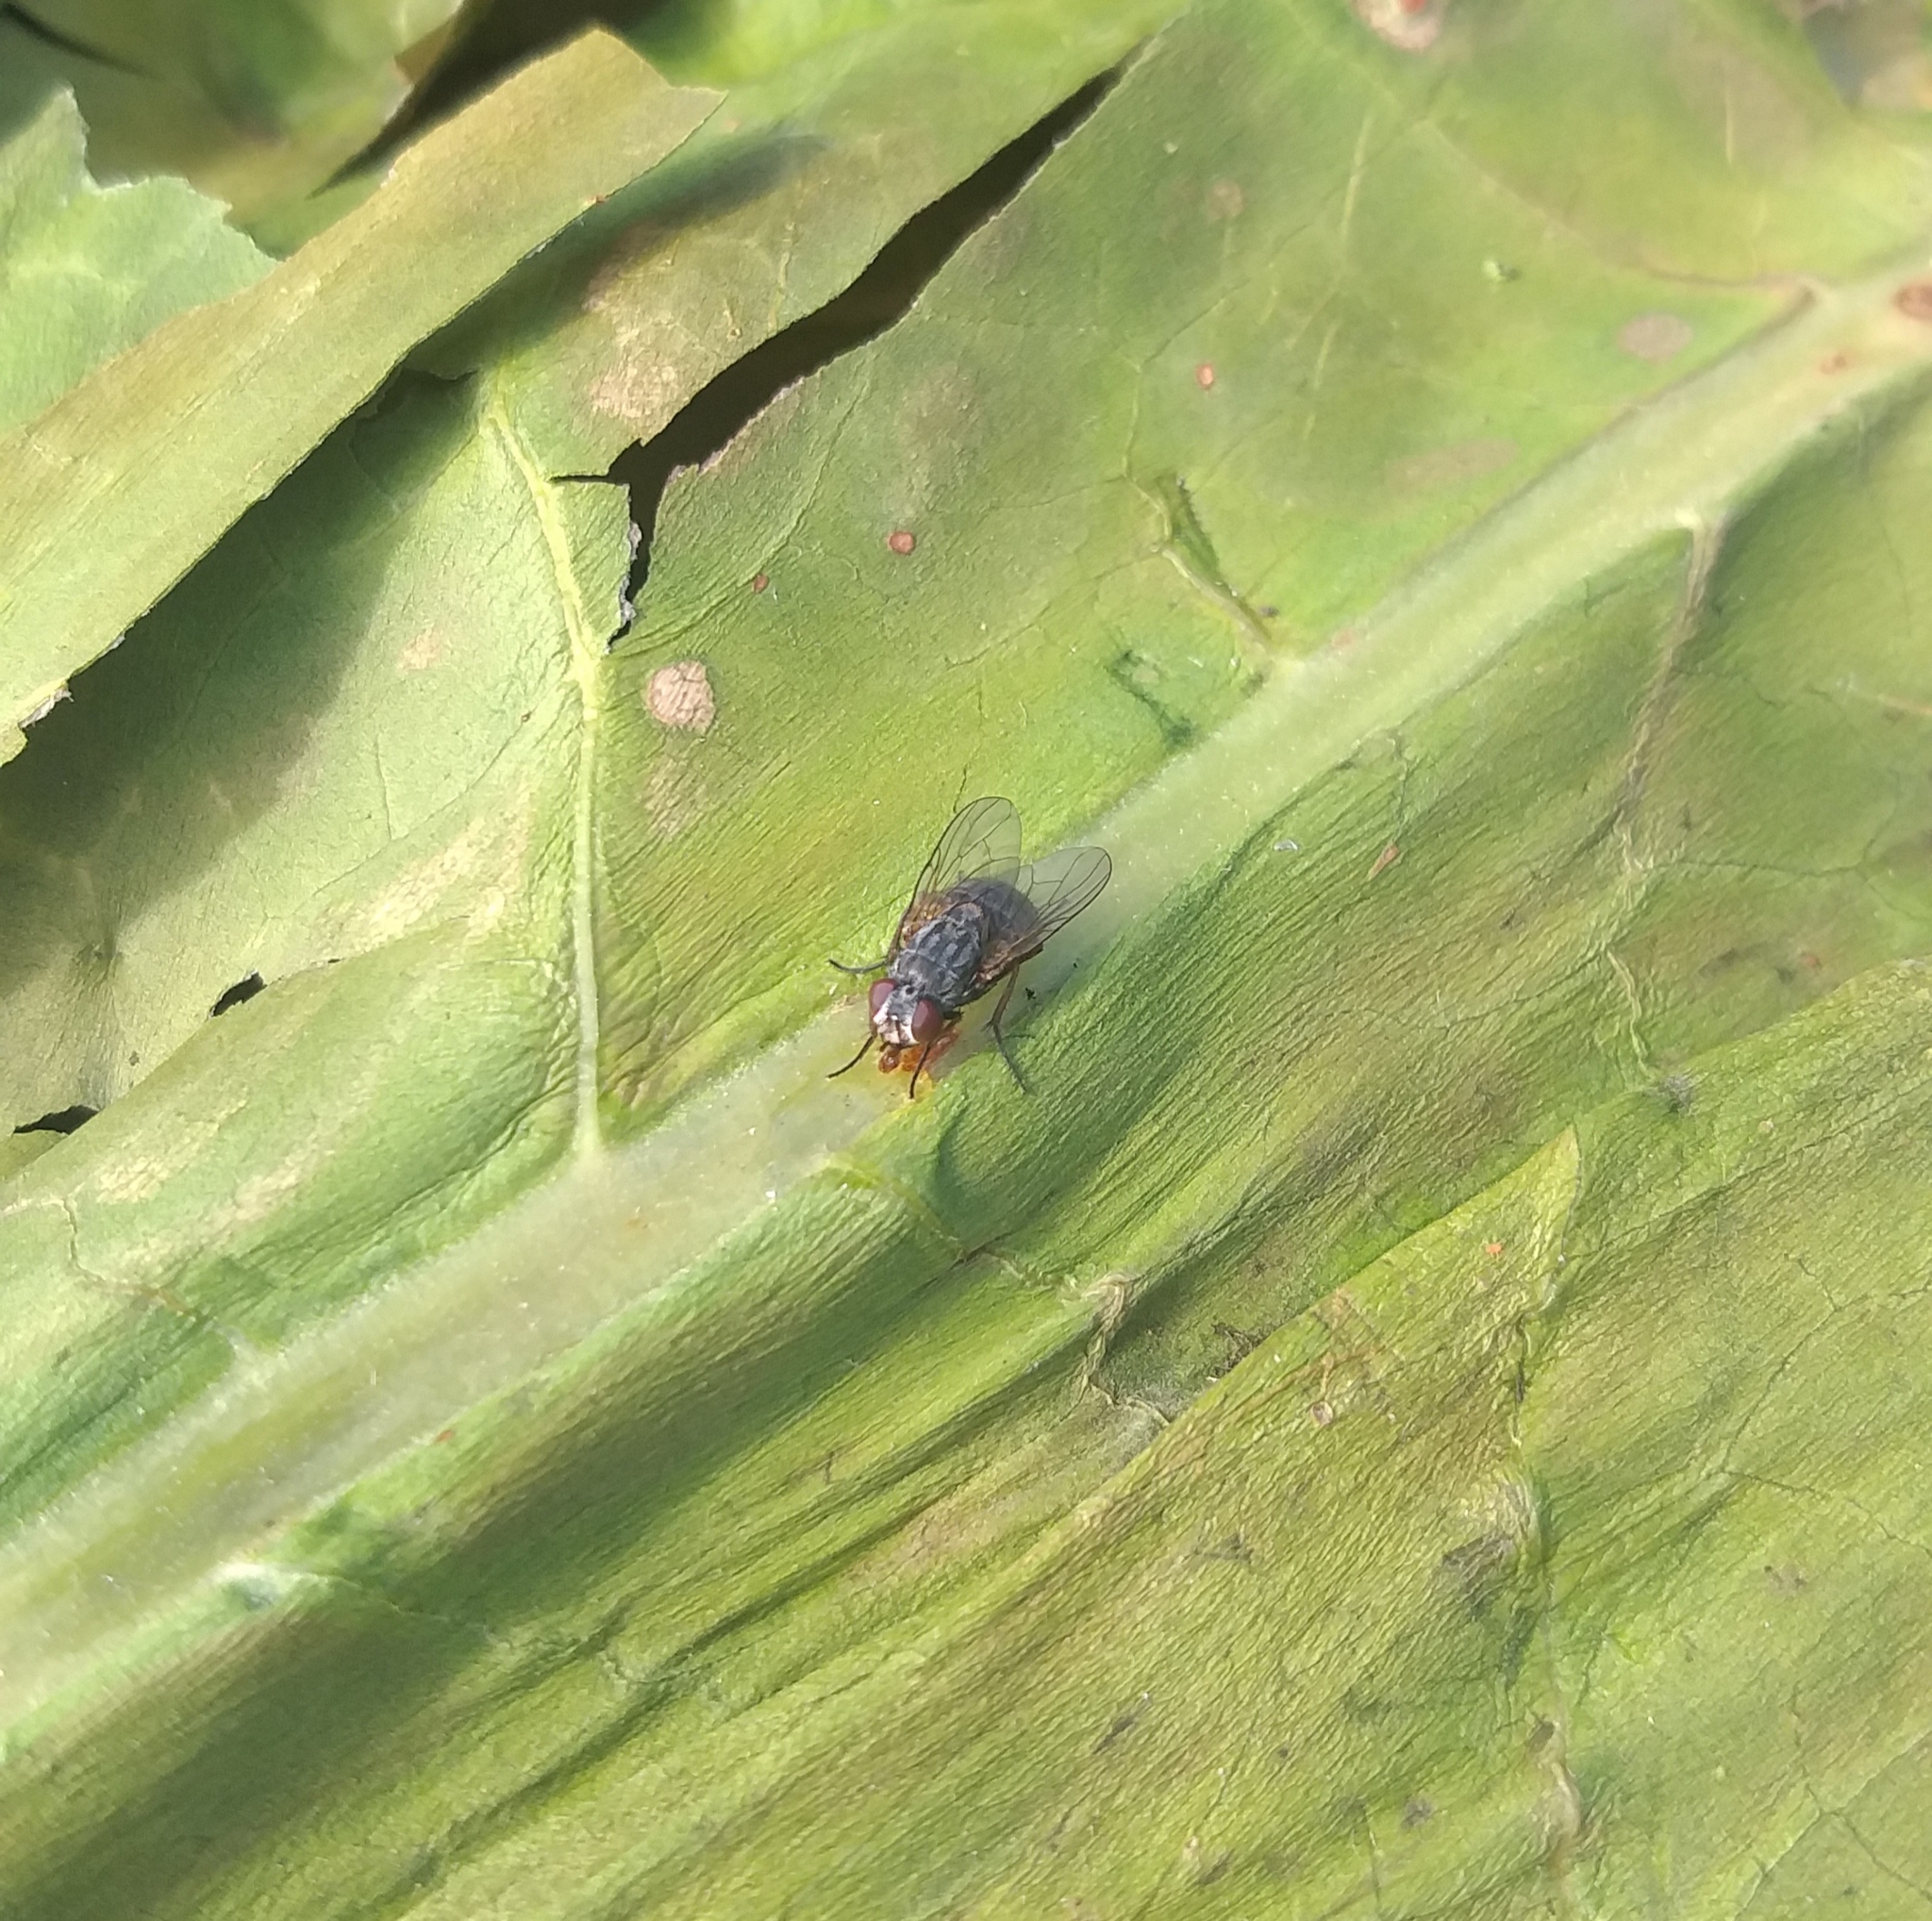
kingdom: Animalia
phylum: Arthropoda
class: Insecta
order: Diptera
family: Muscidae
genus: Muscina
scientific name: Muscina stabulans
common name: False stable fly
